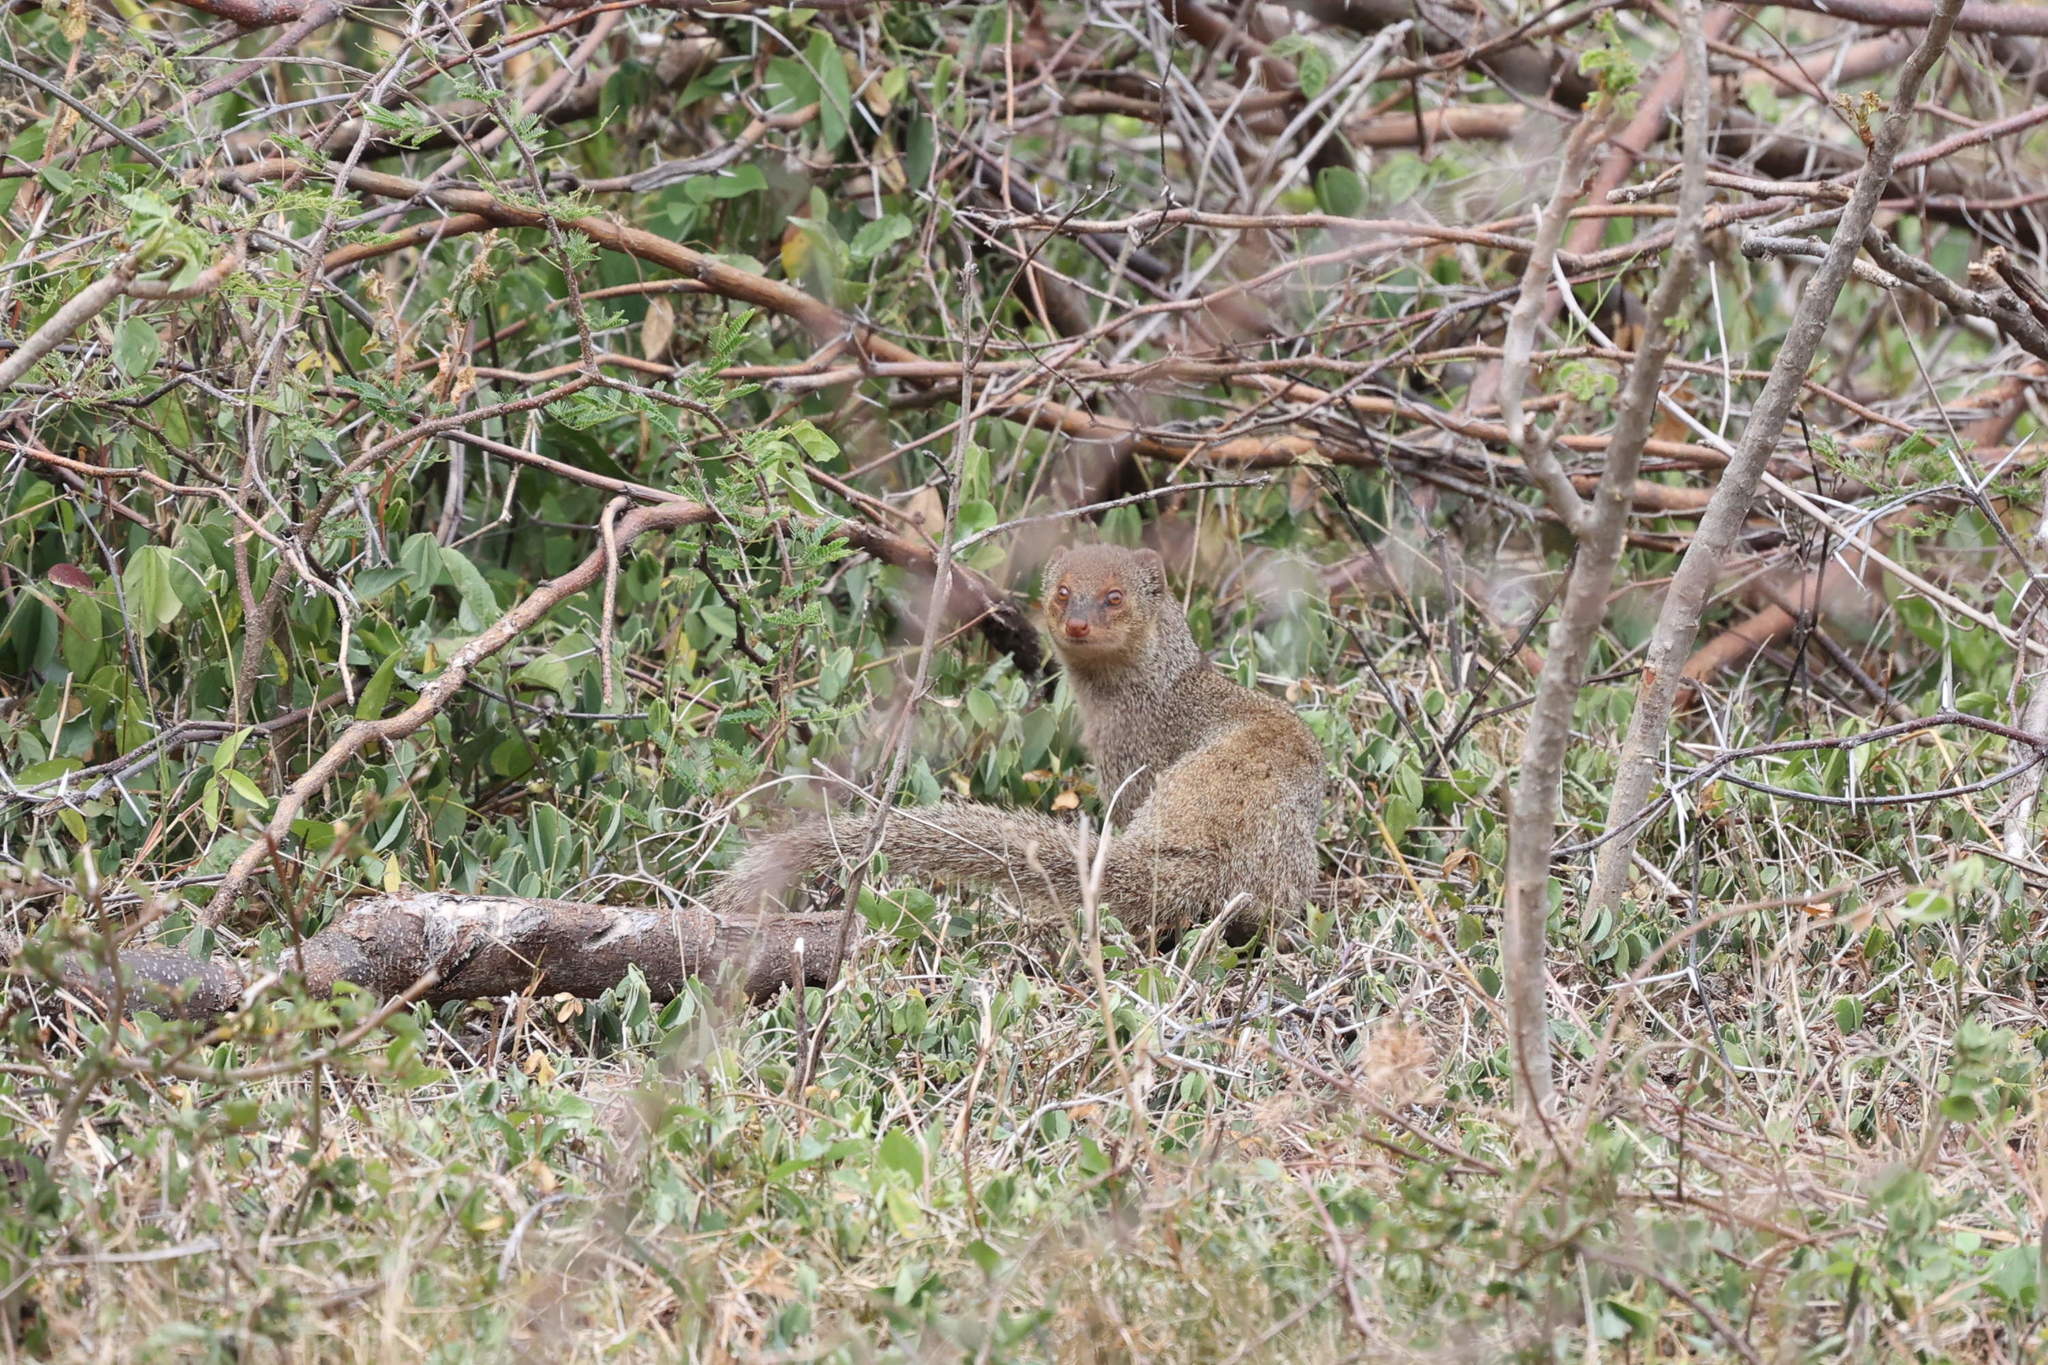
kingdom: Animalia
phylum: Chordata
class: Mammalia
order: Carnivora
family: Herpestidae
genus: Herpestes
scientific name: Herpestes javanicus
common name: Small asian mongoose
